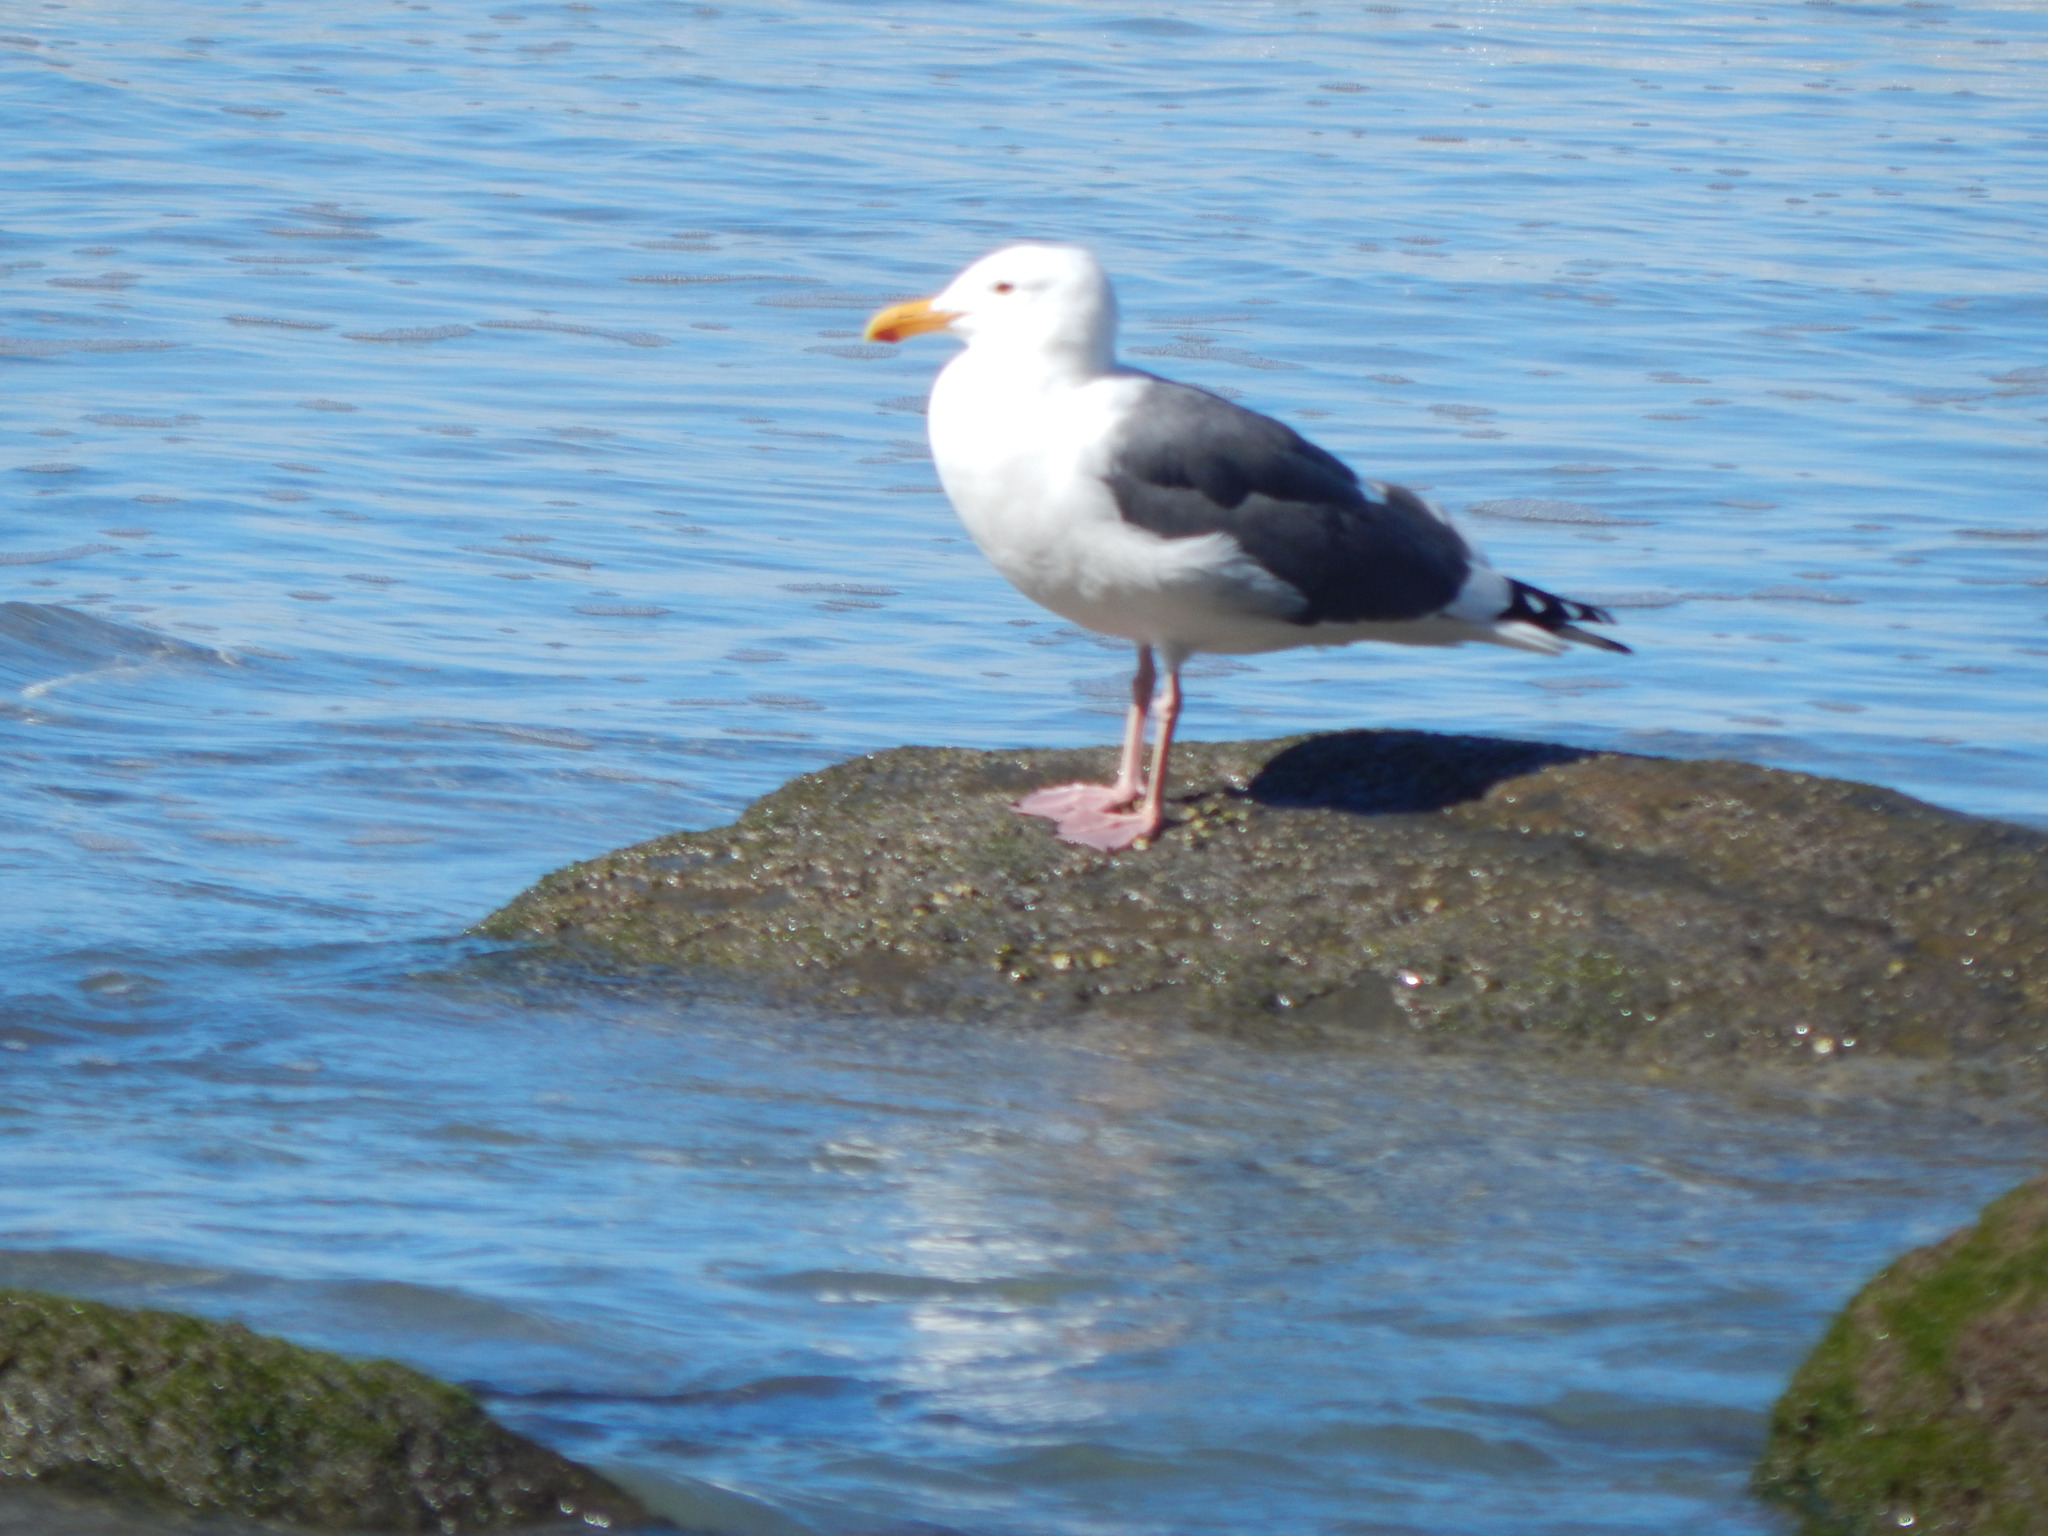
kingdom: Animalia
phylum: Chordata
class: Aves
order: Charadriiformes
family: Laridae
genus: Larus
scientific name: Larus occidentalis
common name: Western gull
